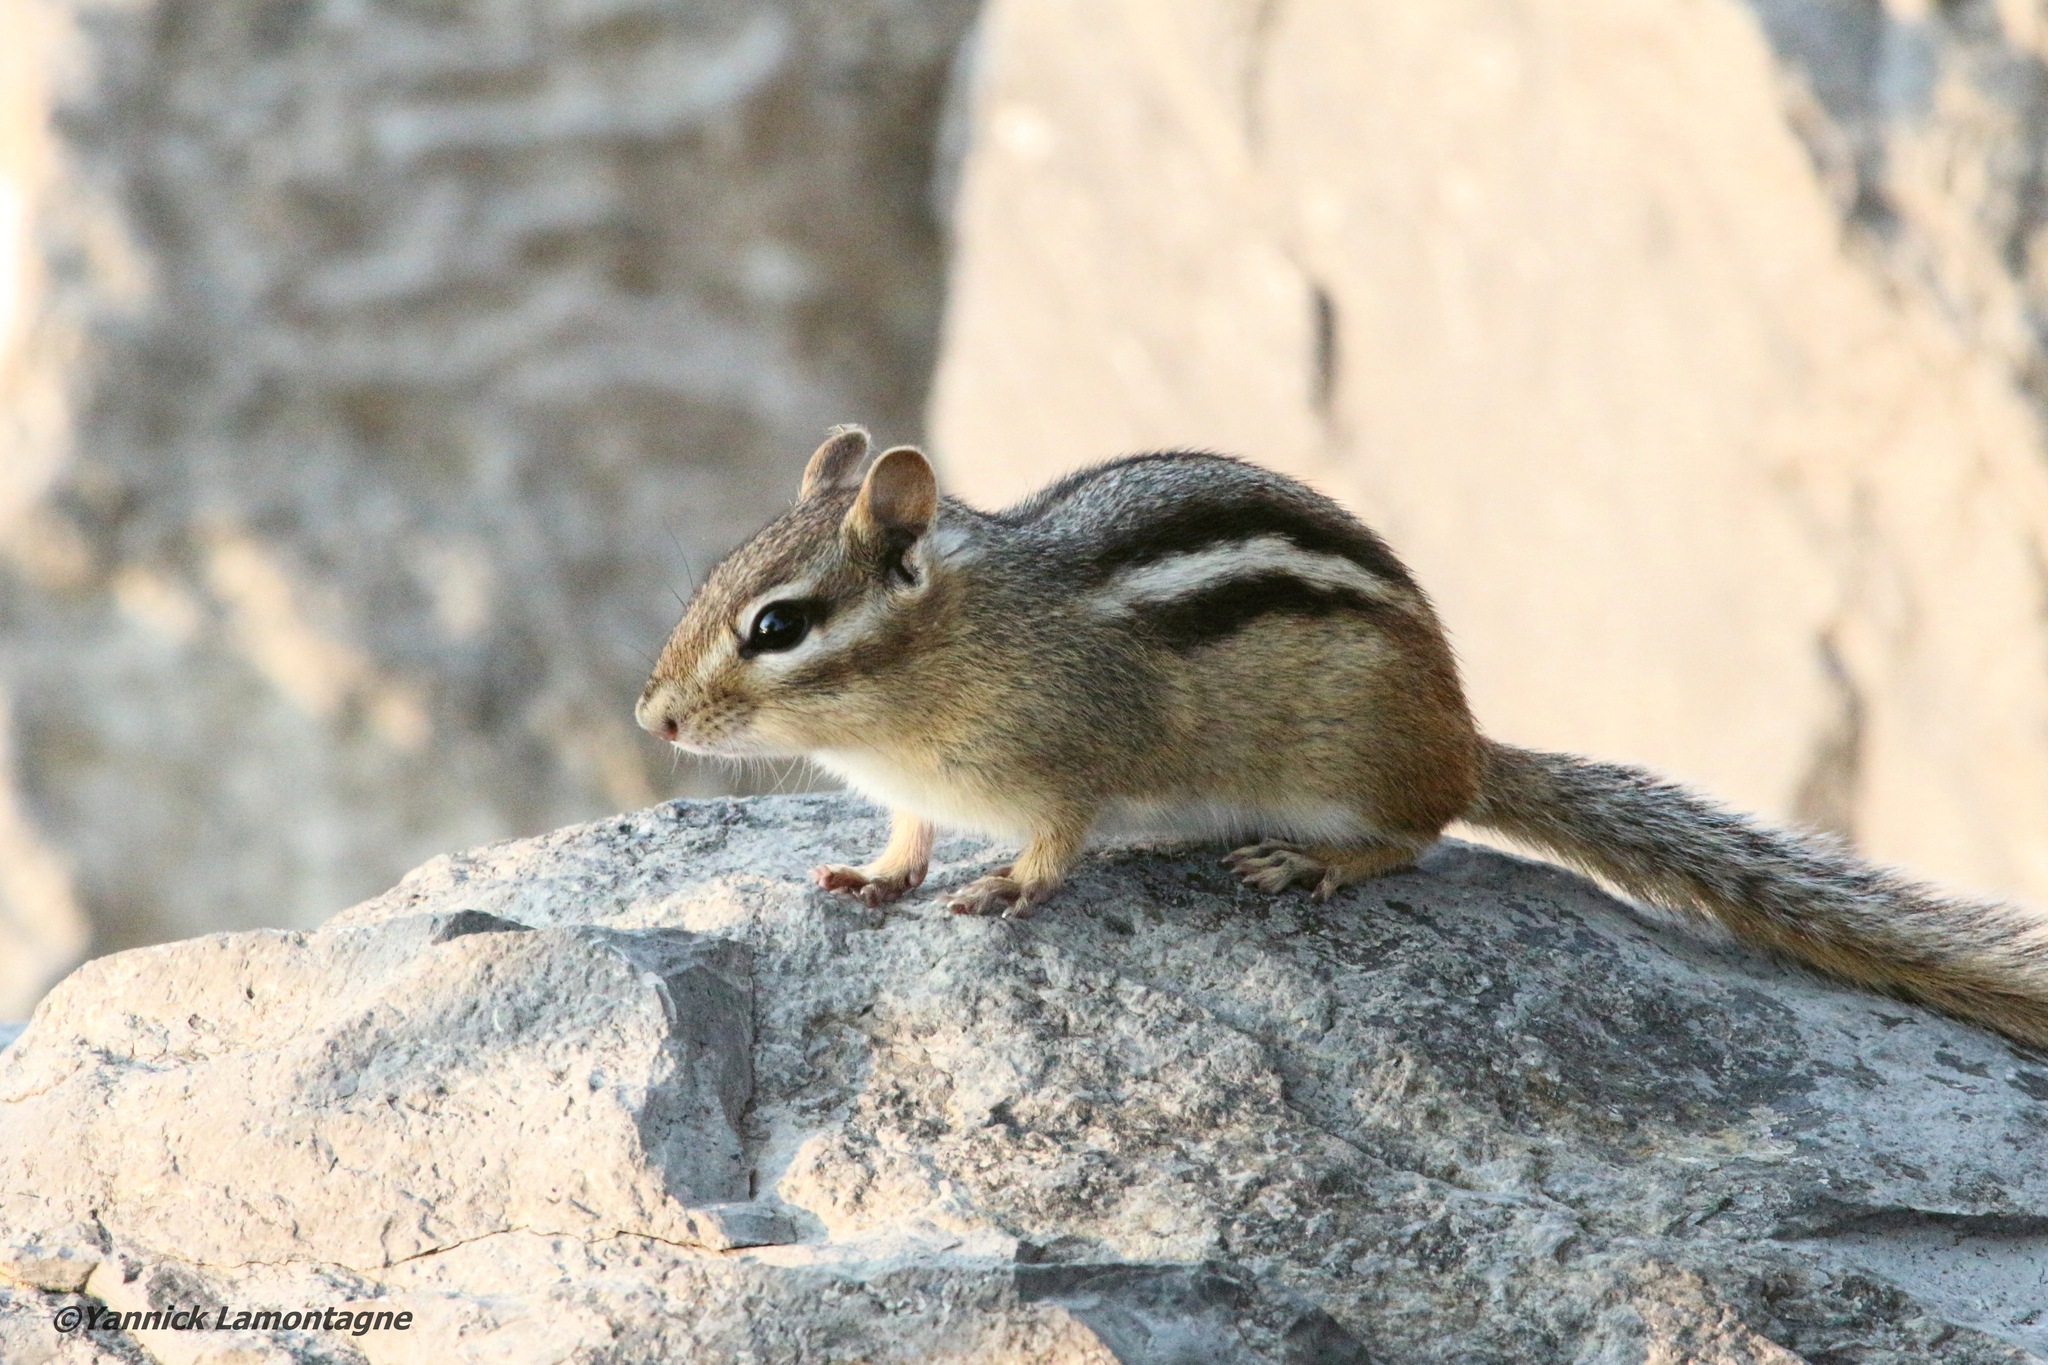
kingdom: Animalia
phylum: Chordata
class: Mammalia
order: Rodentia
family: Sciuridae
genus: Tamias
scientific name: Tamias striatus
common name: Eastern chipmunk
